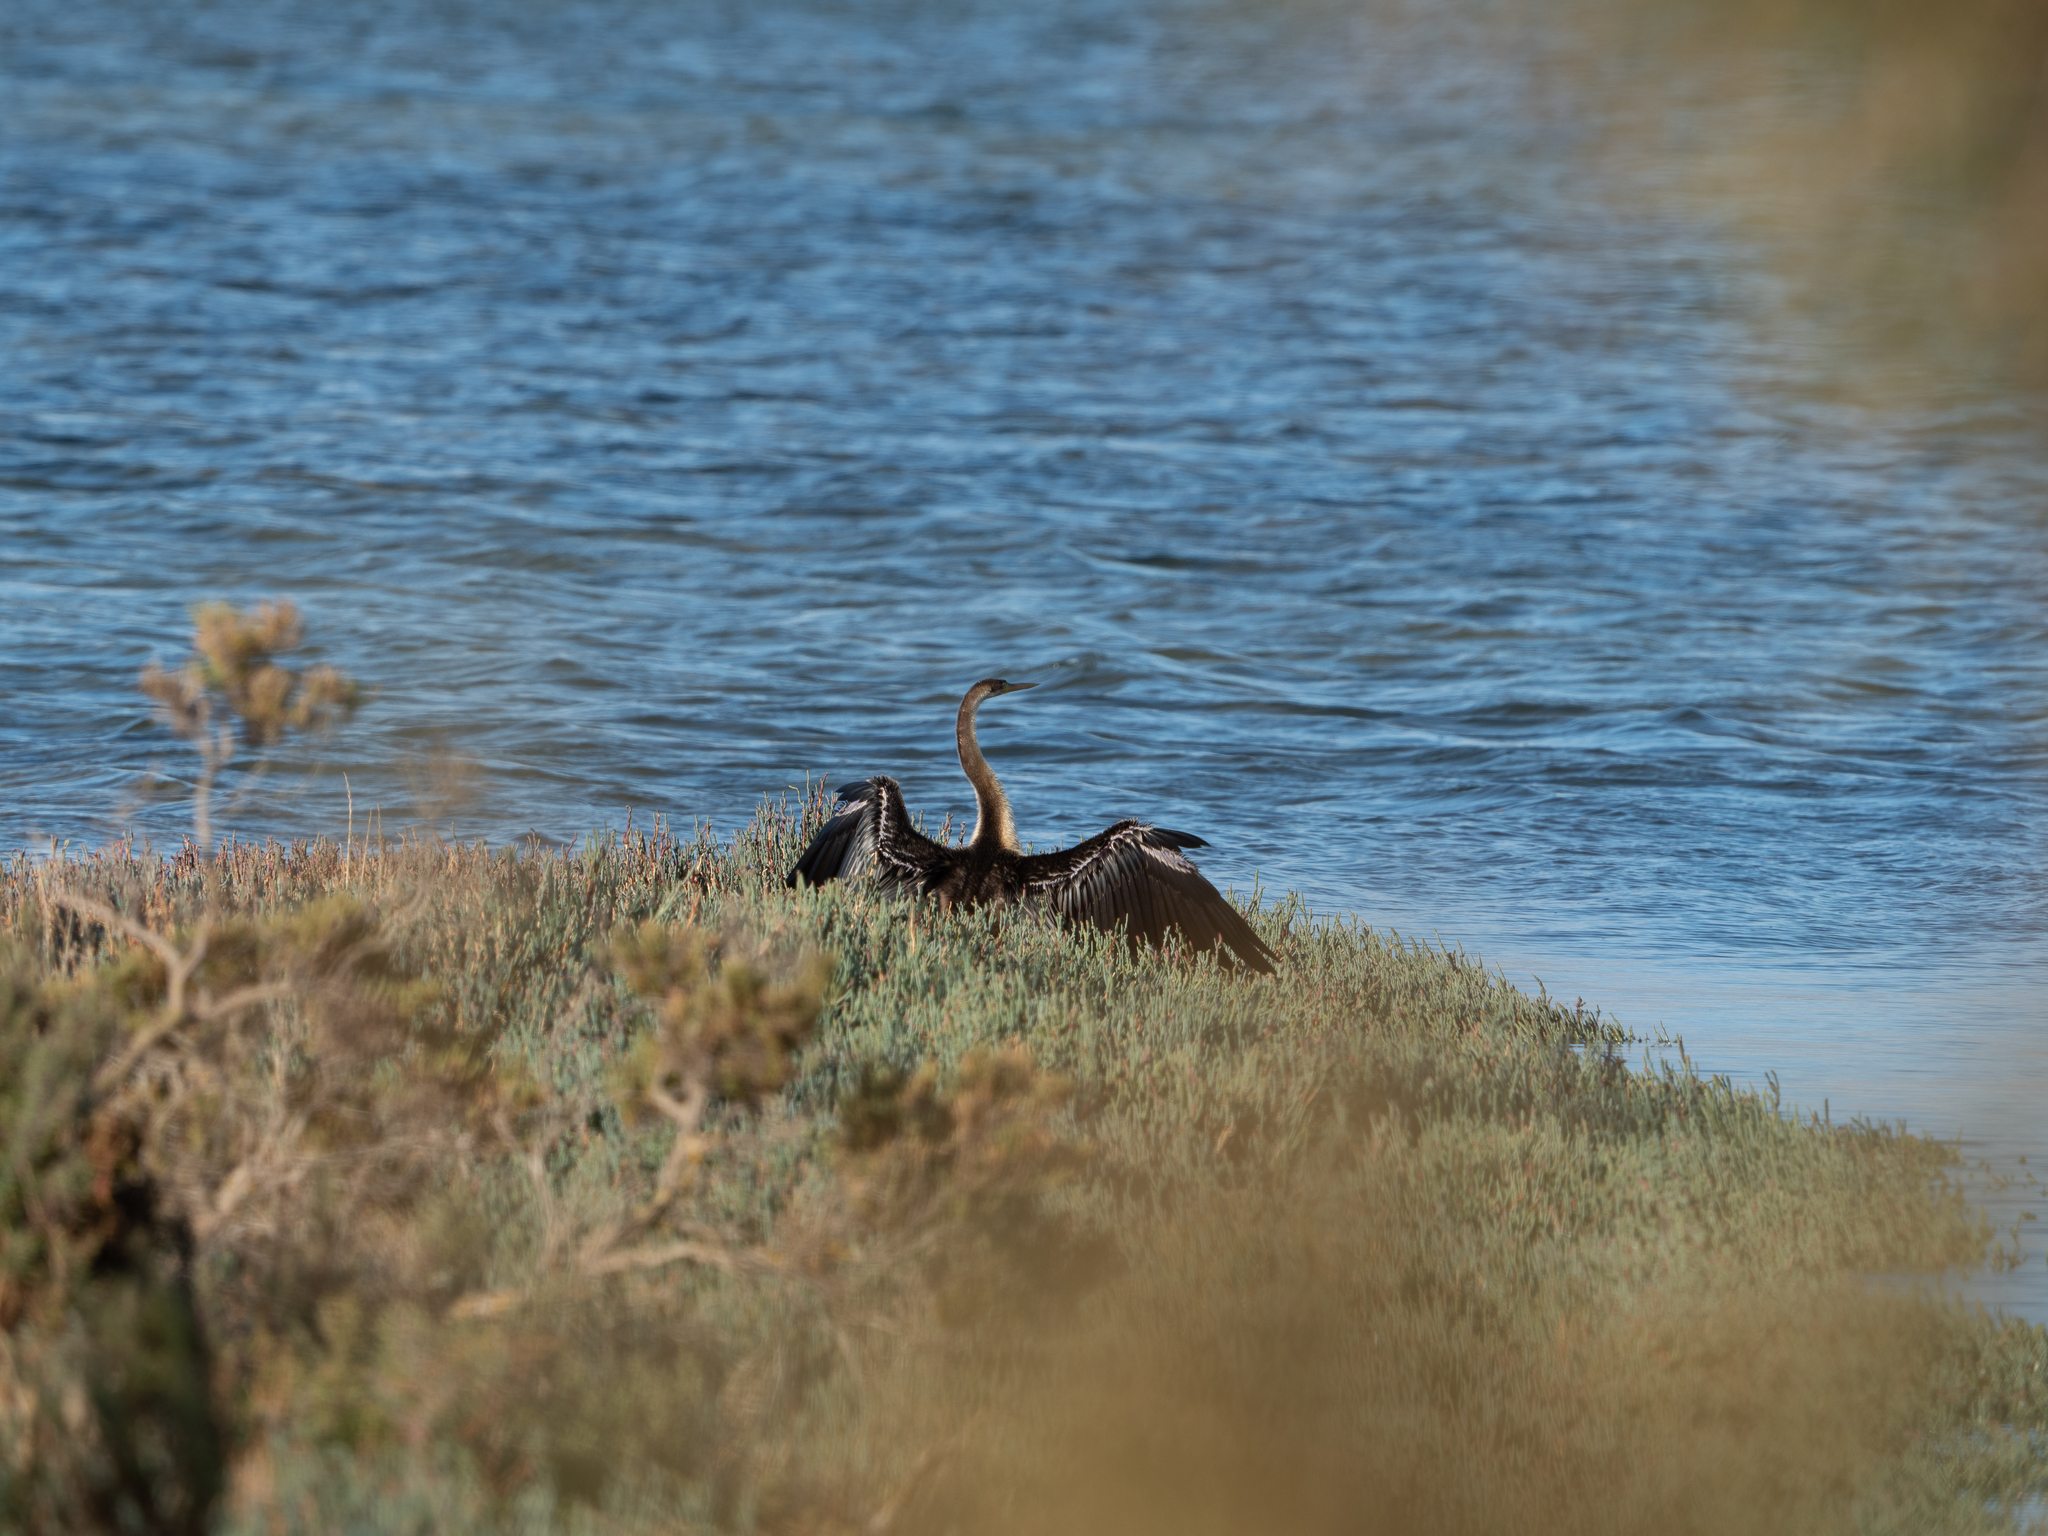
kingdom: Animalia
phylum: Chordata
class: Aves
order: Suliformes
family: Anhingidae
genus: Anhinga
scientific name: Anhinga novaehollandiae
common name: Australasian darter
